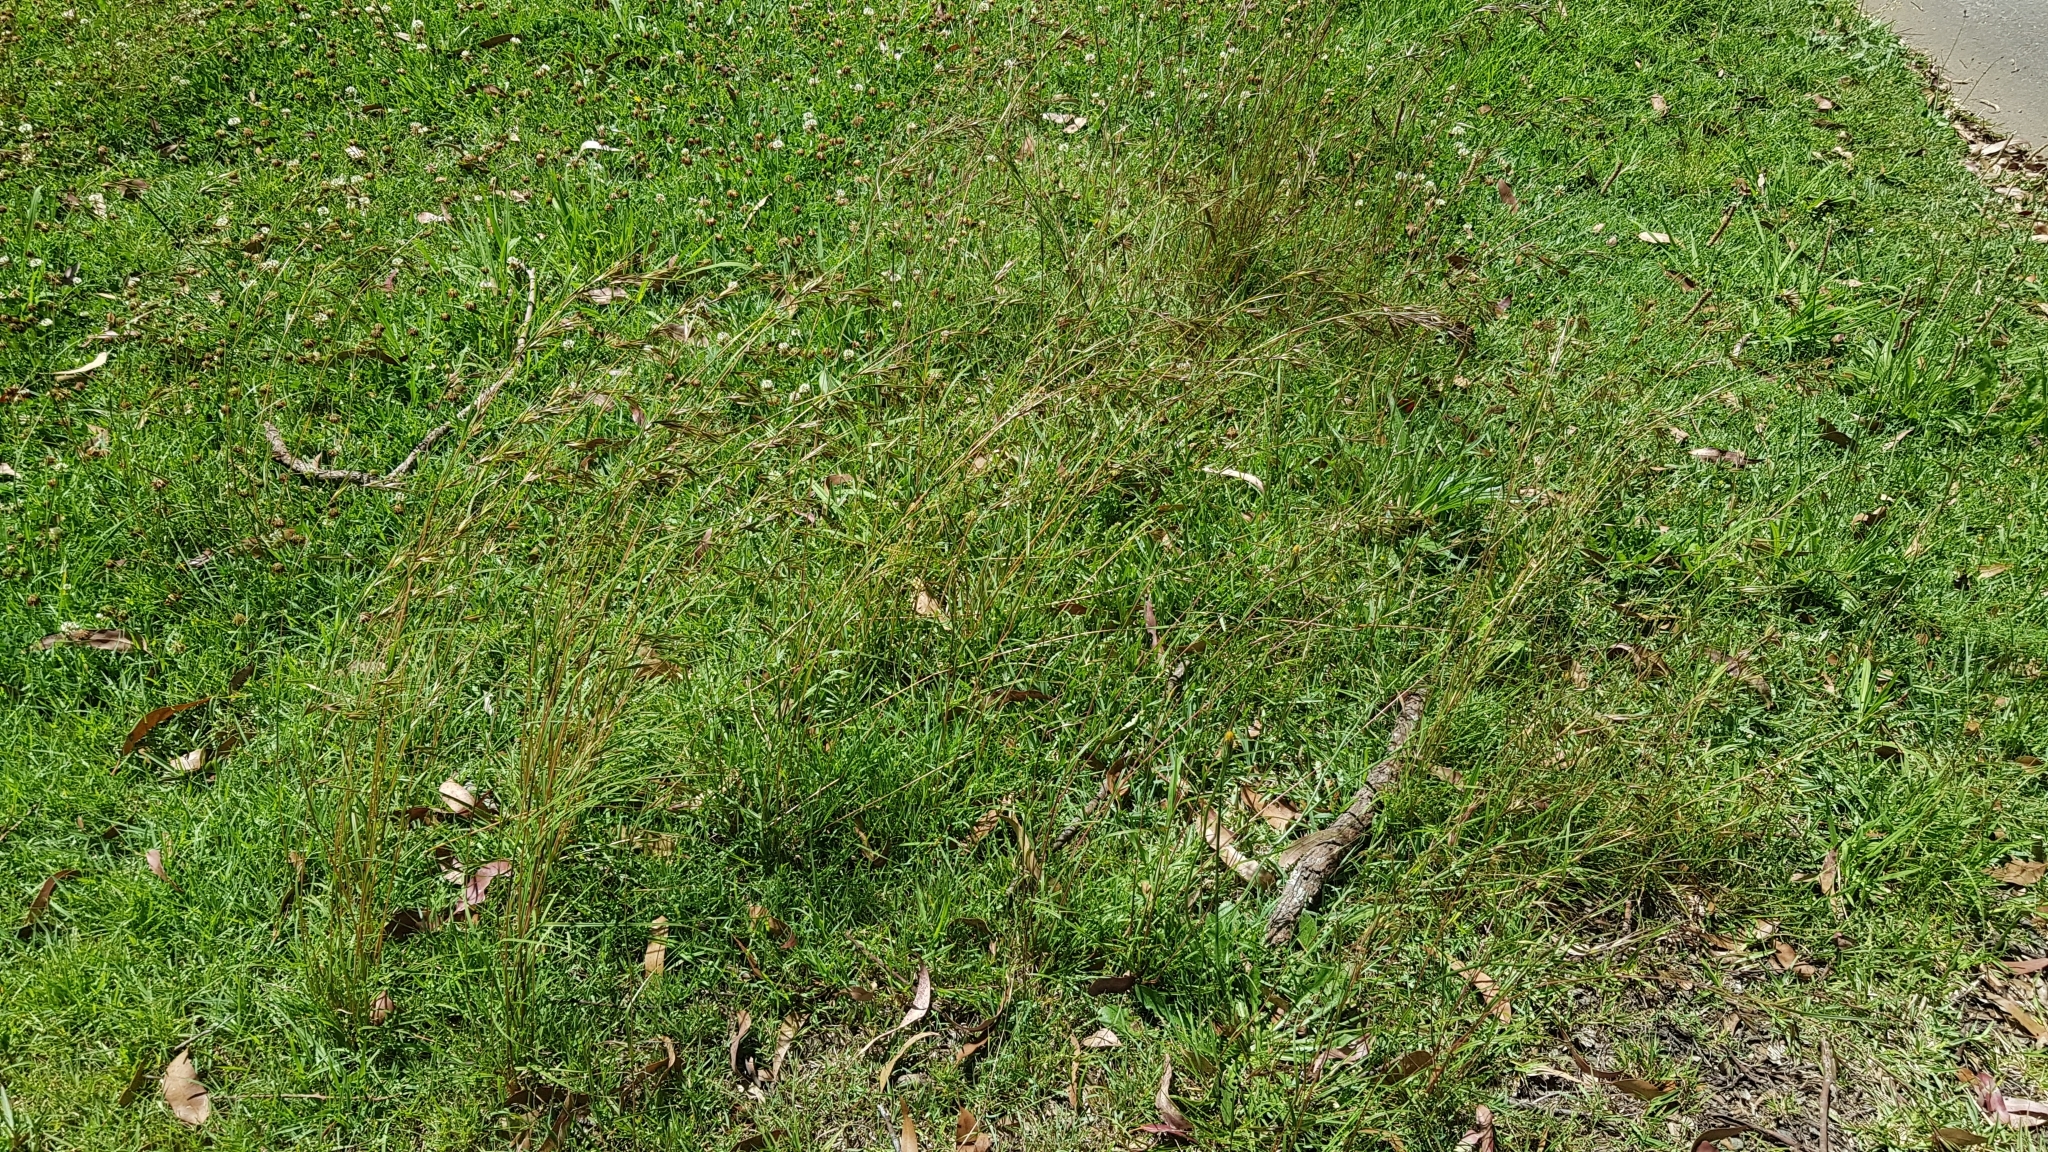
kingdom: Plantae
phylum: Tracheophyta
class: Liliopsida
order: Poales
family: Poaceae
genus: Themeda
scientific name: Themeda triandra
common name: Kangaroo grass
